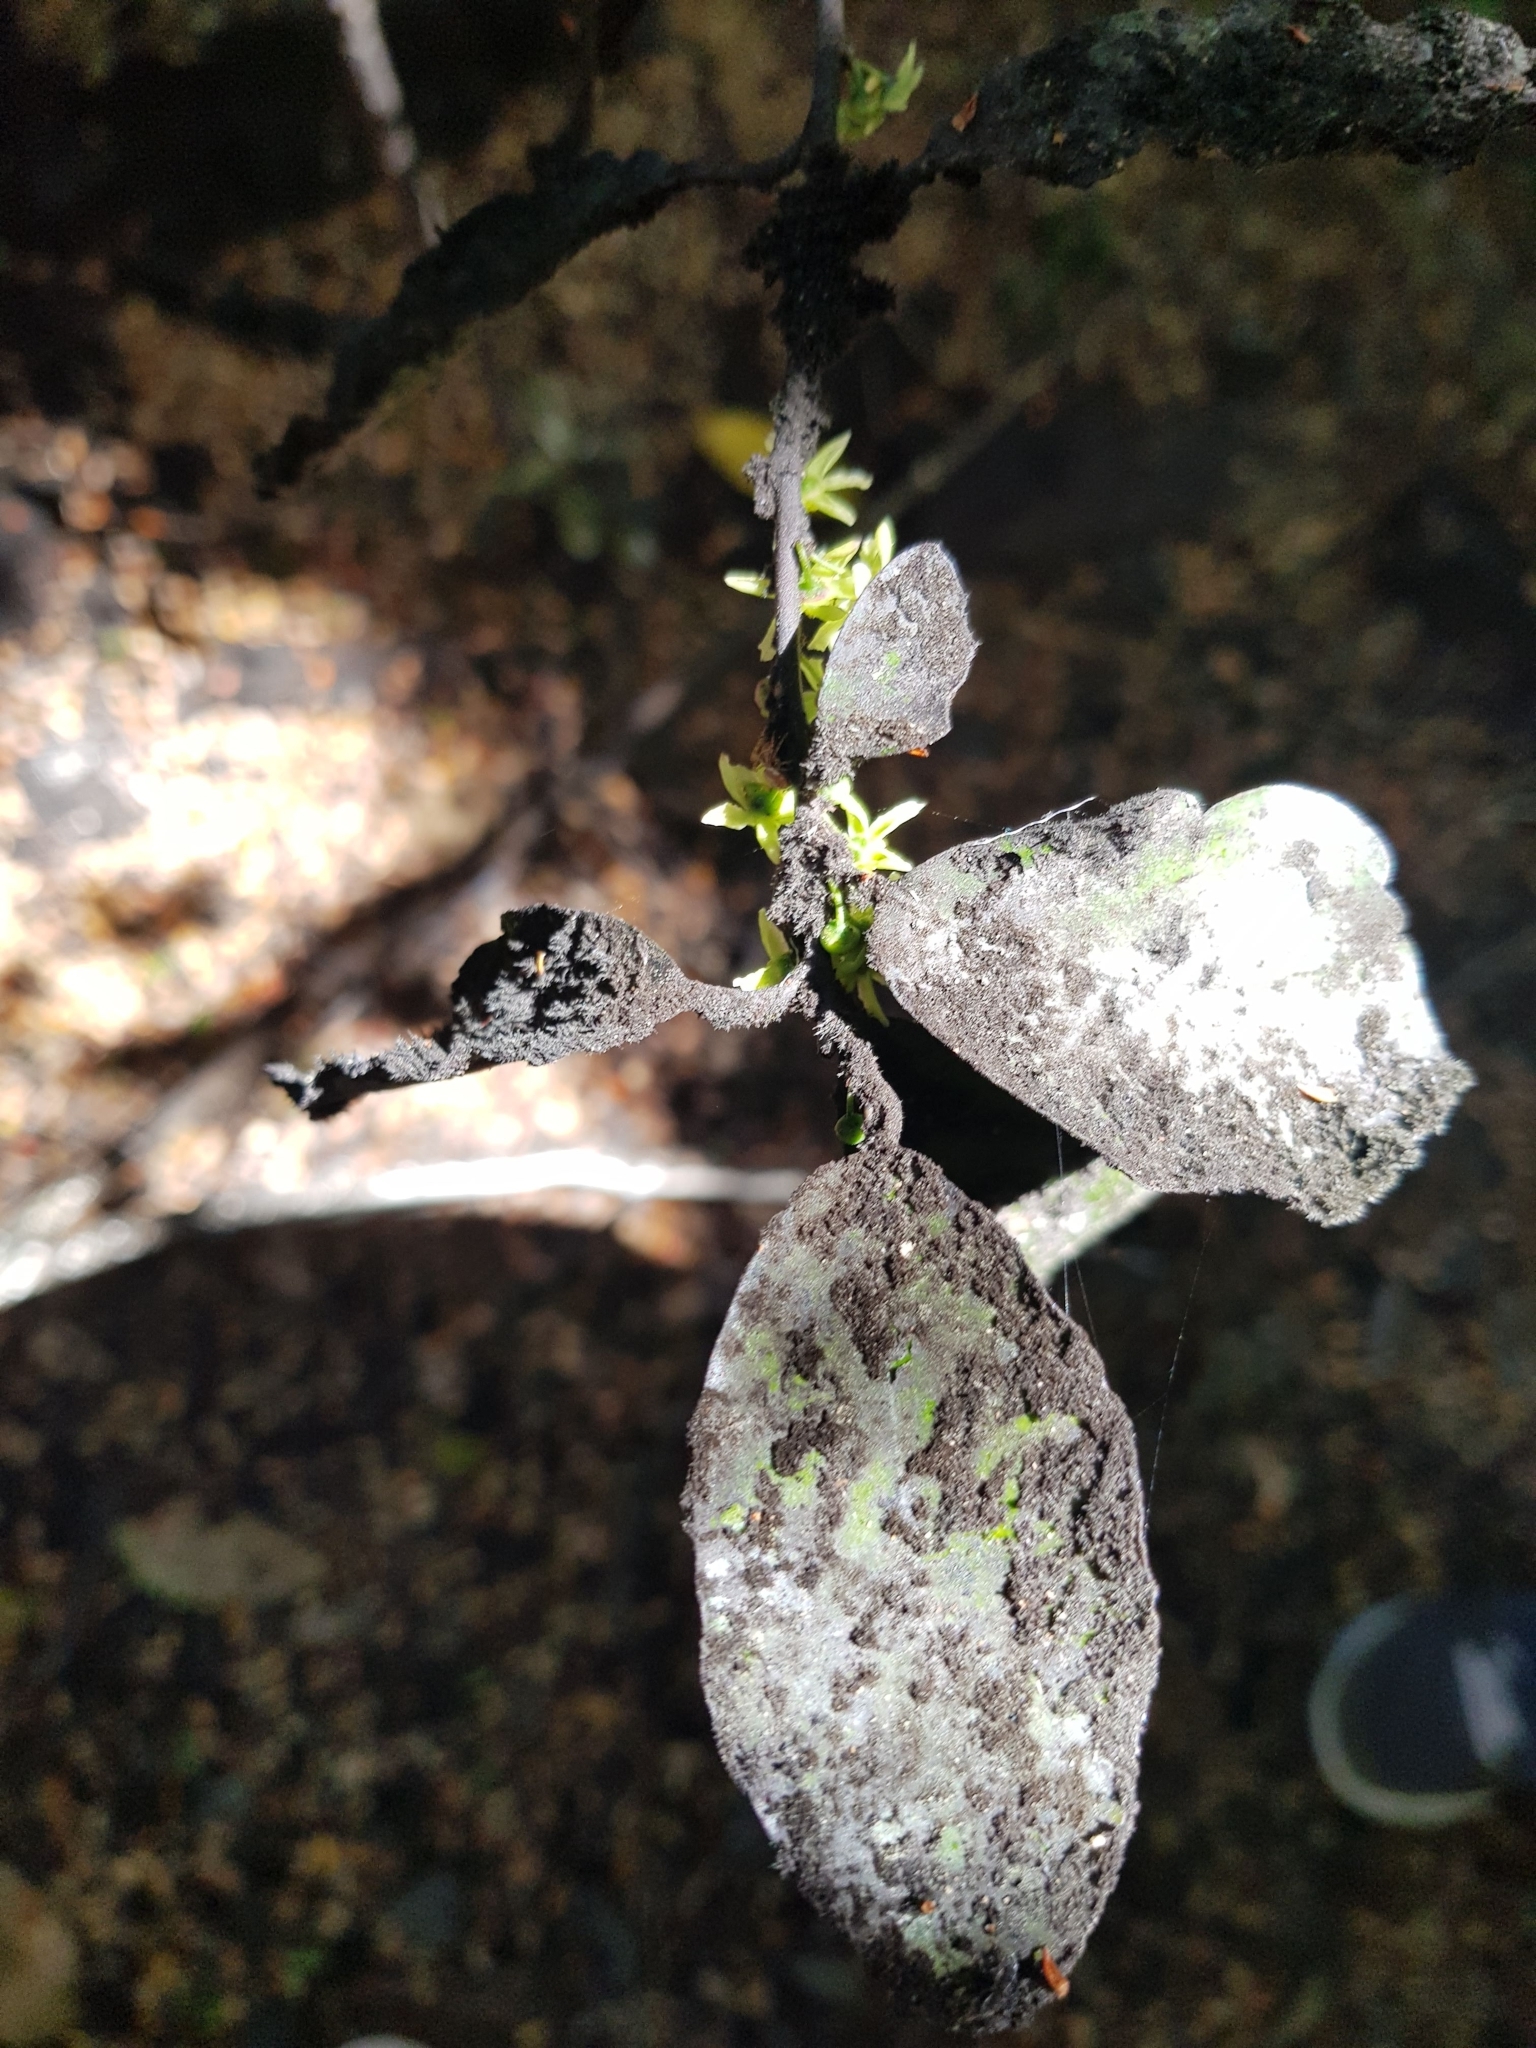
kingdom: Plantae
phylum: Tracheophyta
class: Magnoliopsida
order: Canellales
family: Winteraceae
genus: Pseudowintera
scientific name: Pseudowintera colorata
